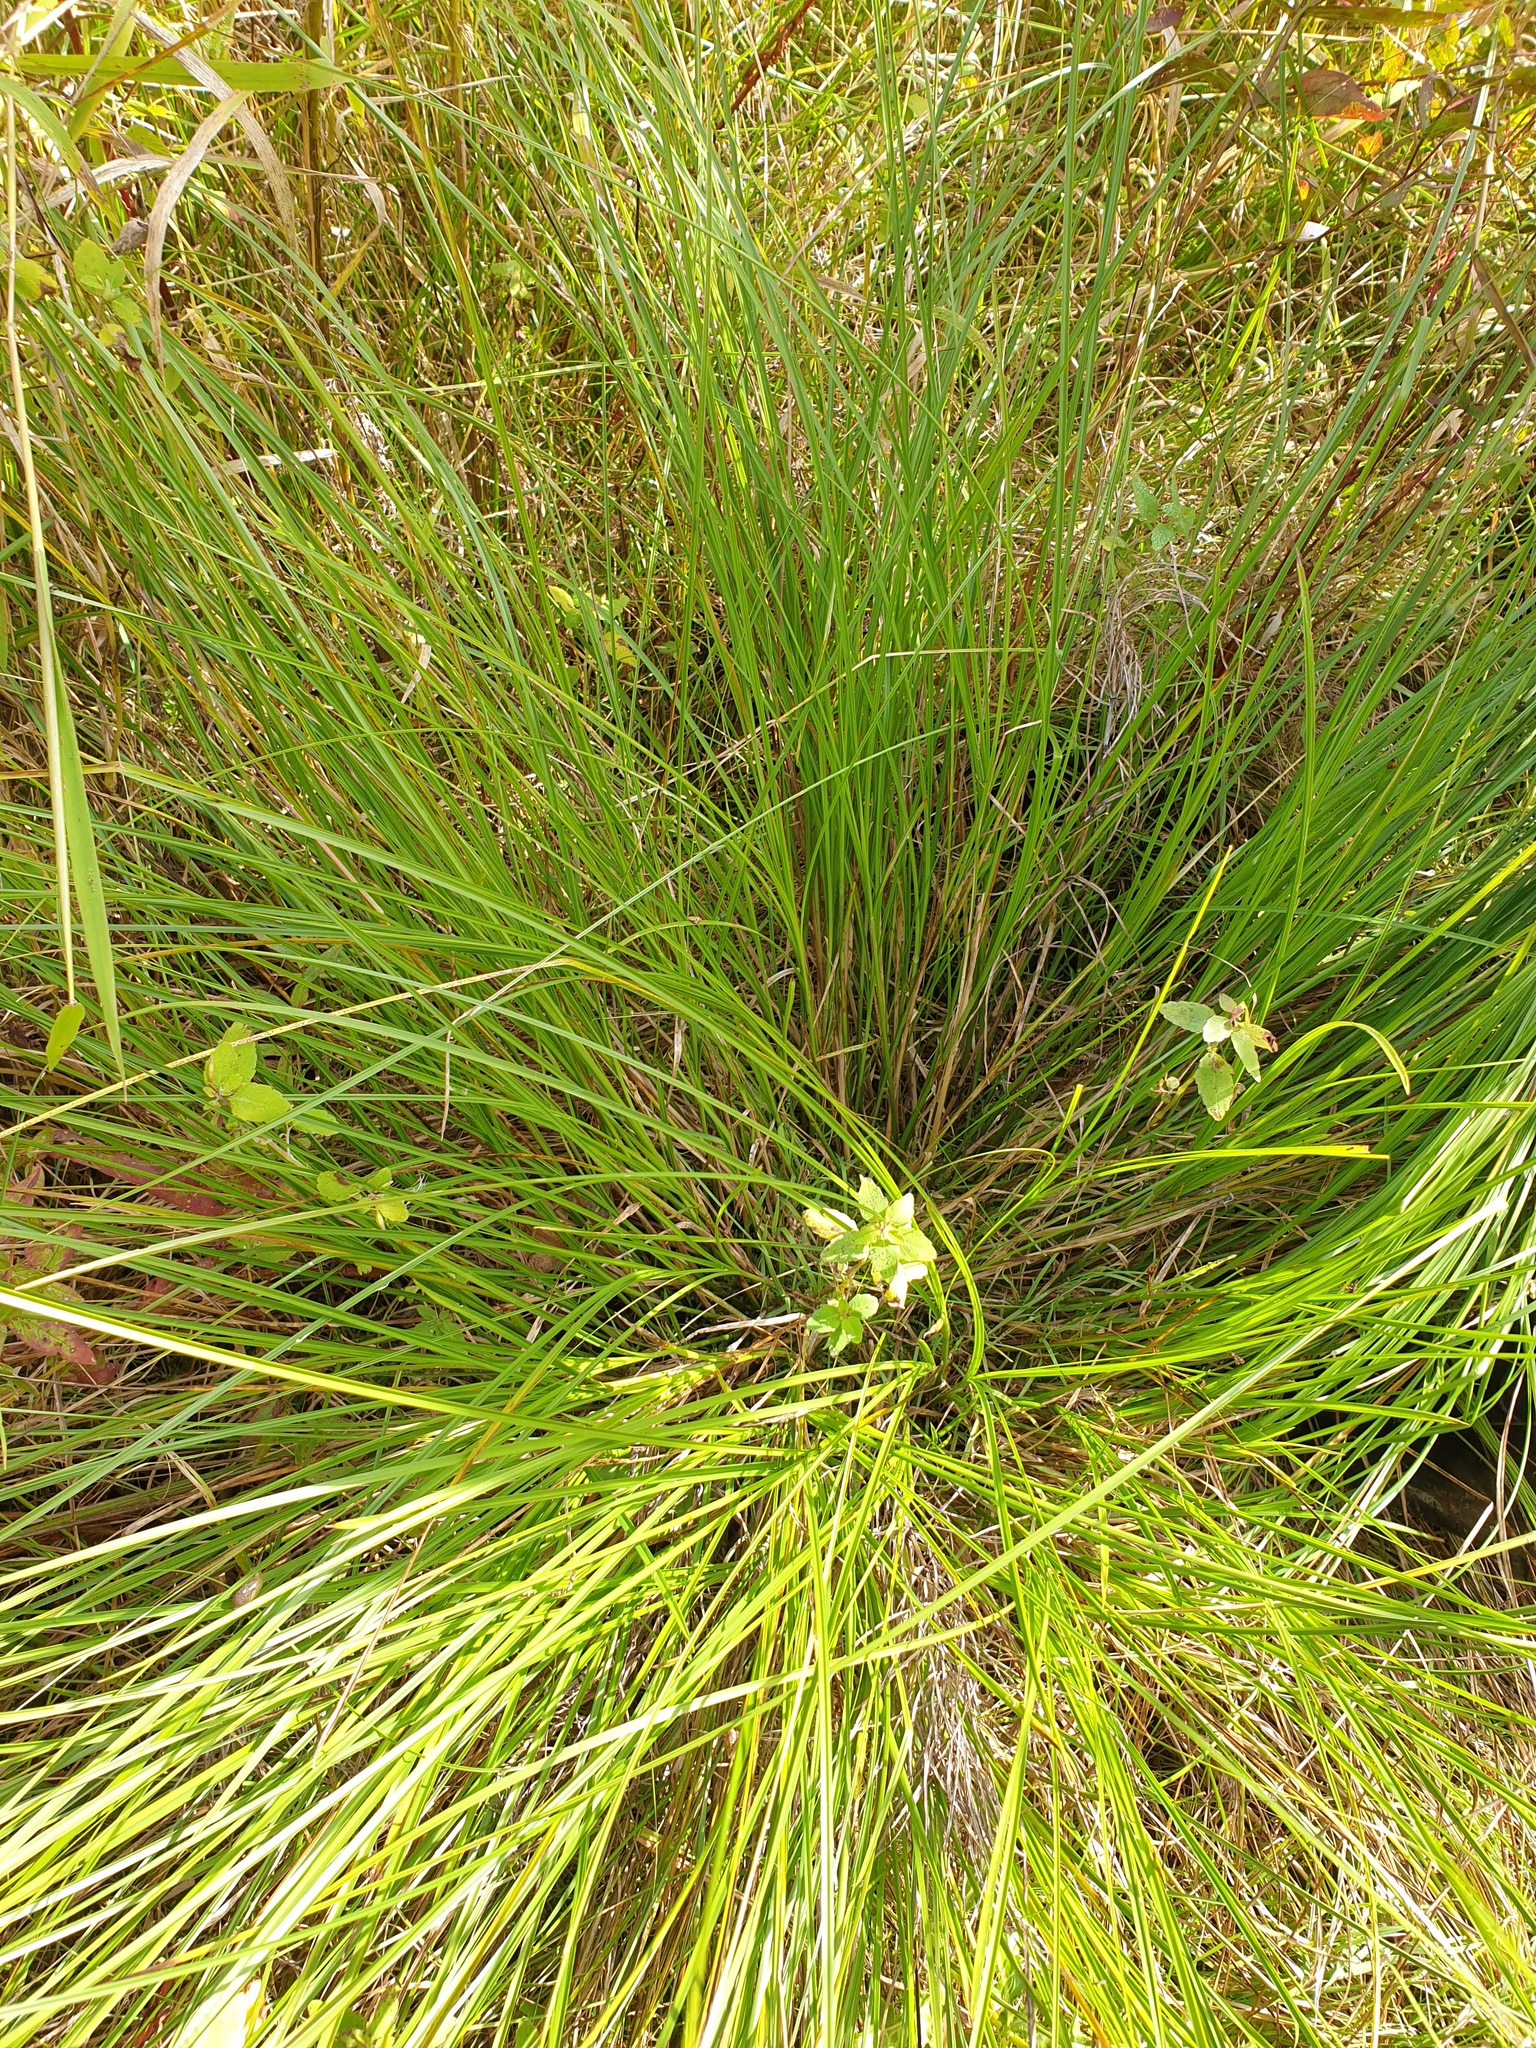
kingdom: Plantae
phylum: Tracheophyta
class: Liliopsida
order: Poales
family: Cyperaceae
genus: Carex
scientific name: Carex vulpinoidea
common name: American fox-sedge
